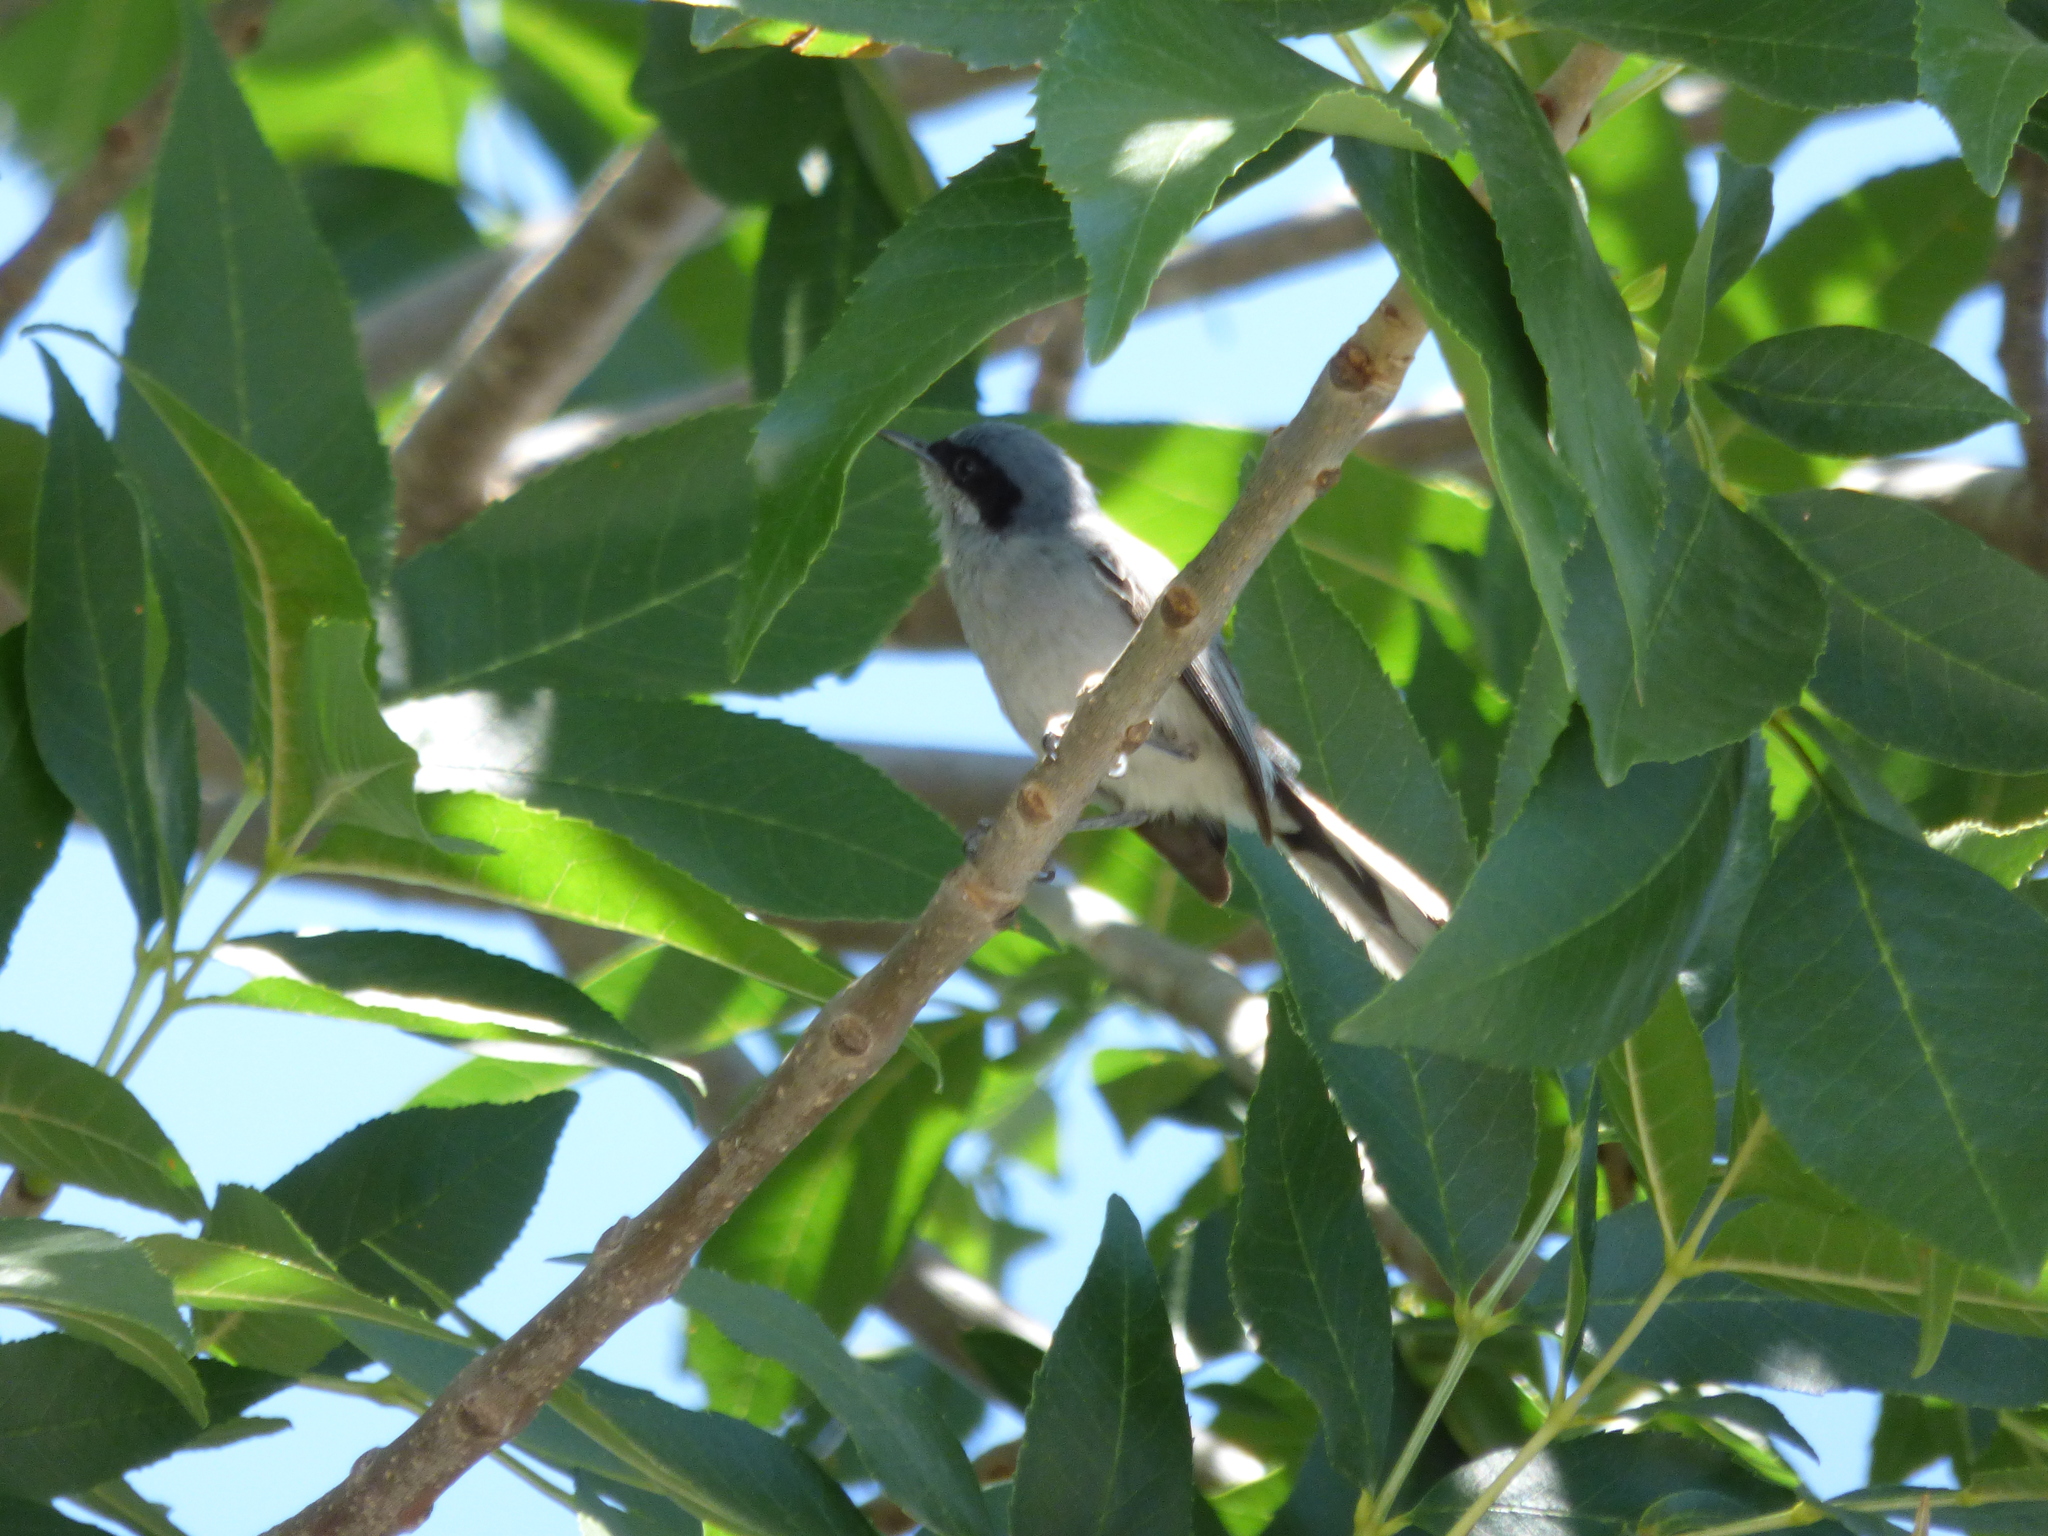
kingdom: Animalia
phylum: Chordata
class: Aves
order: Passeriformes
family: Polioptilidae
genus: Polioptila
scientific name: Polioptila dumicola
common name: Masked gnatcatcher
